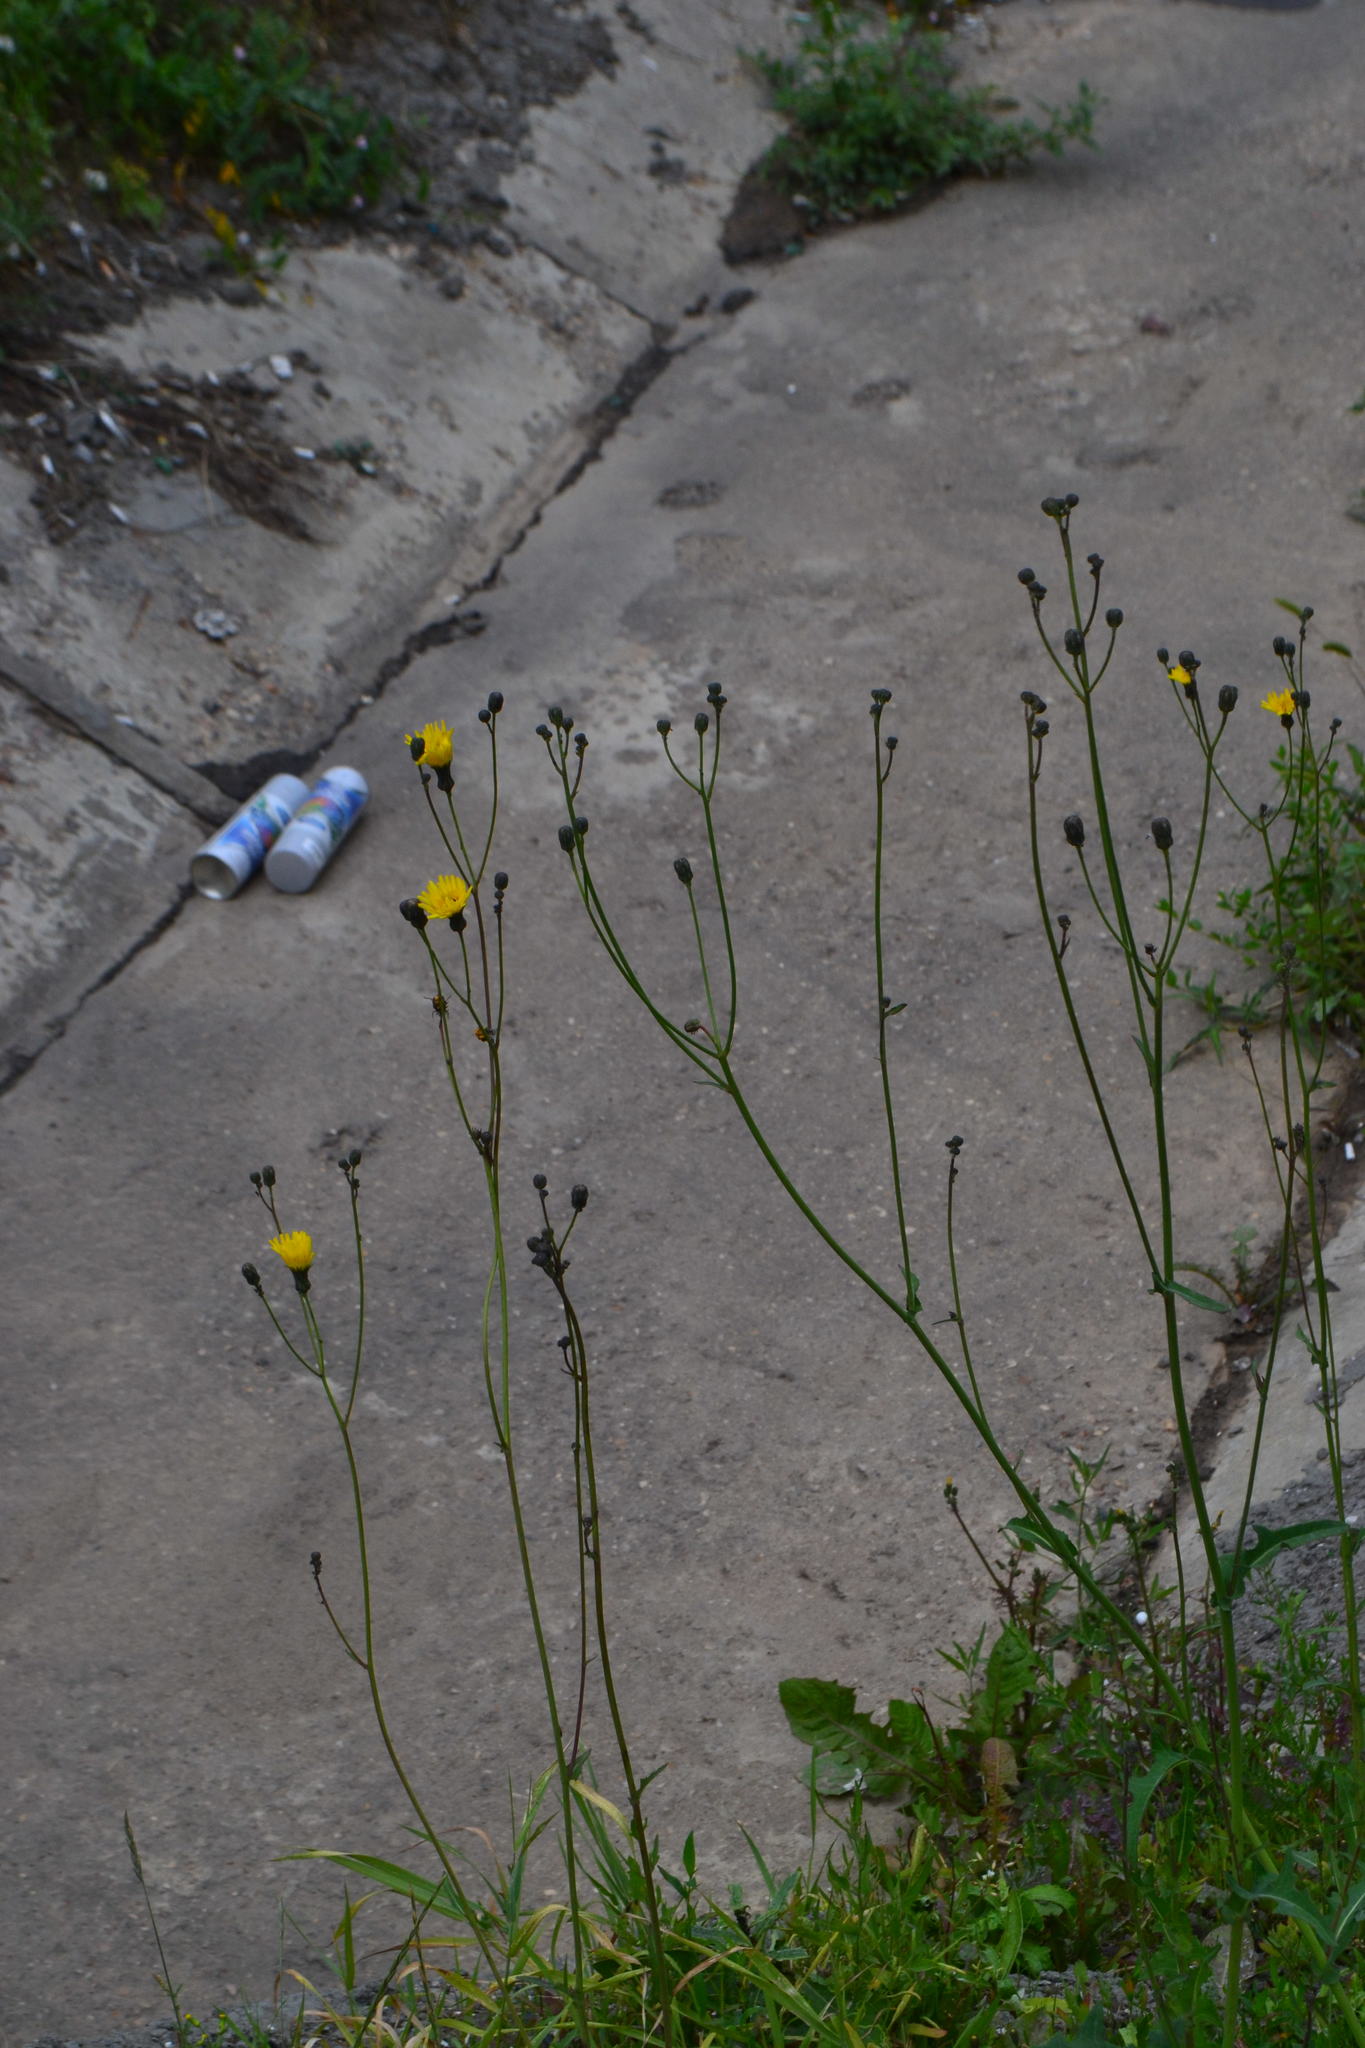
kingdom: Plantae
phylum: Tracheophyta
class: Magnoliopsida
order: Asterales
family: Asteraceae
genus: Sonchus
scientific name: Sonchus arvensis
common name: Perennial sow-thistle
